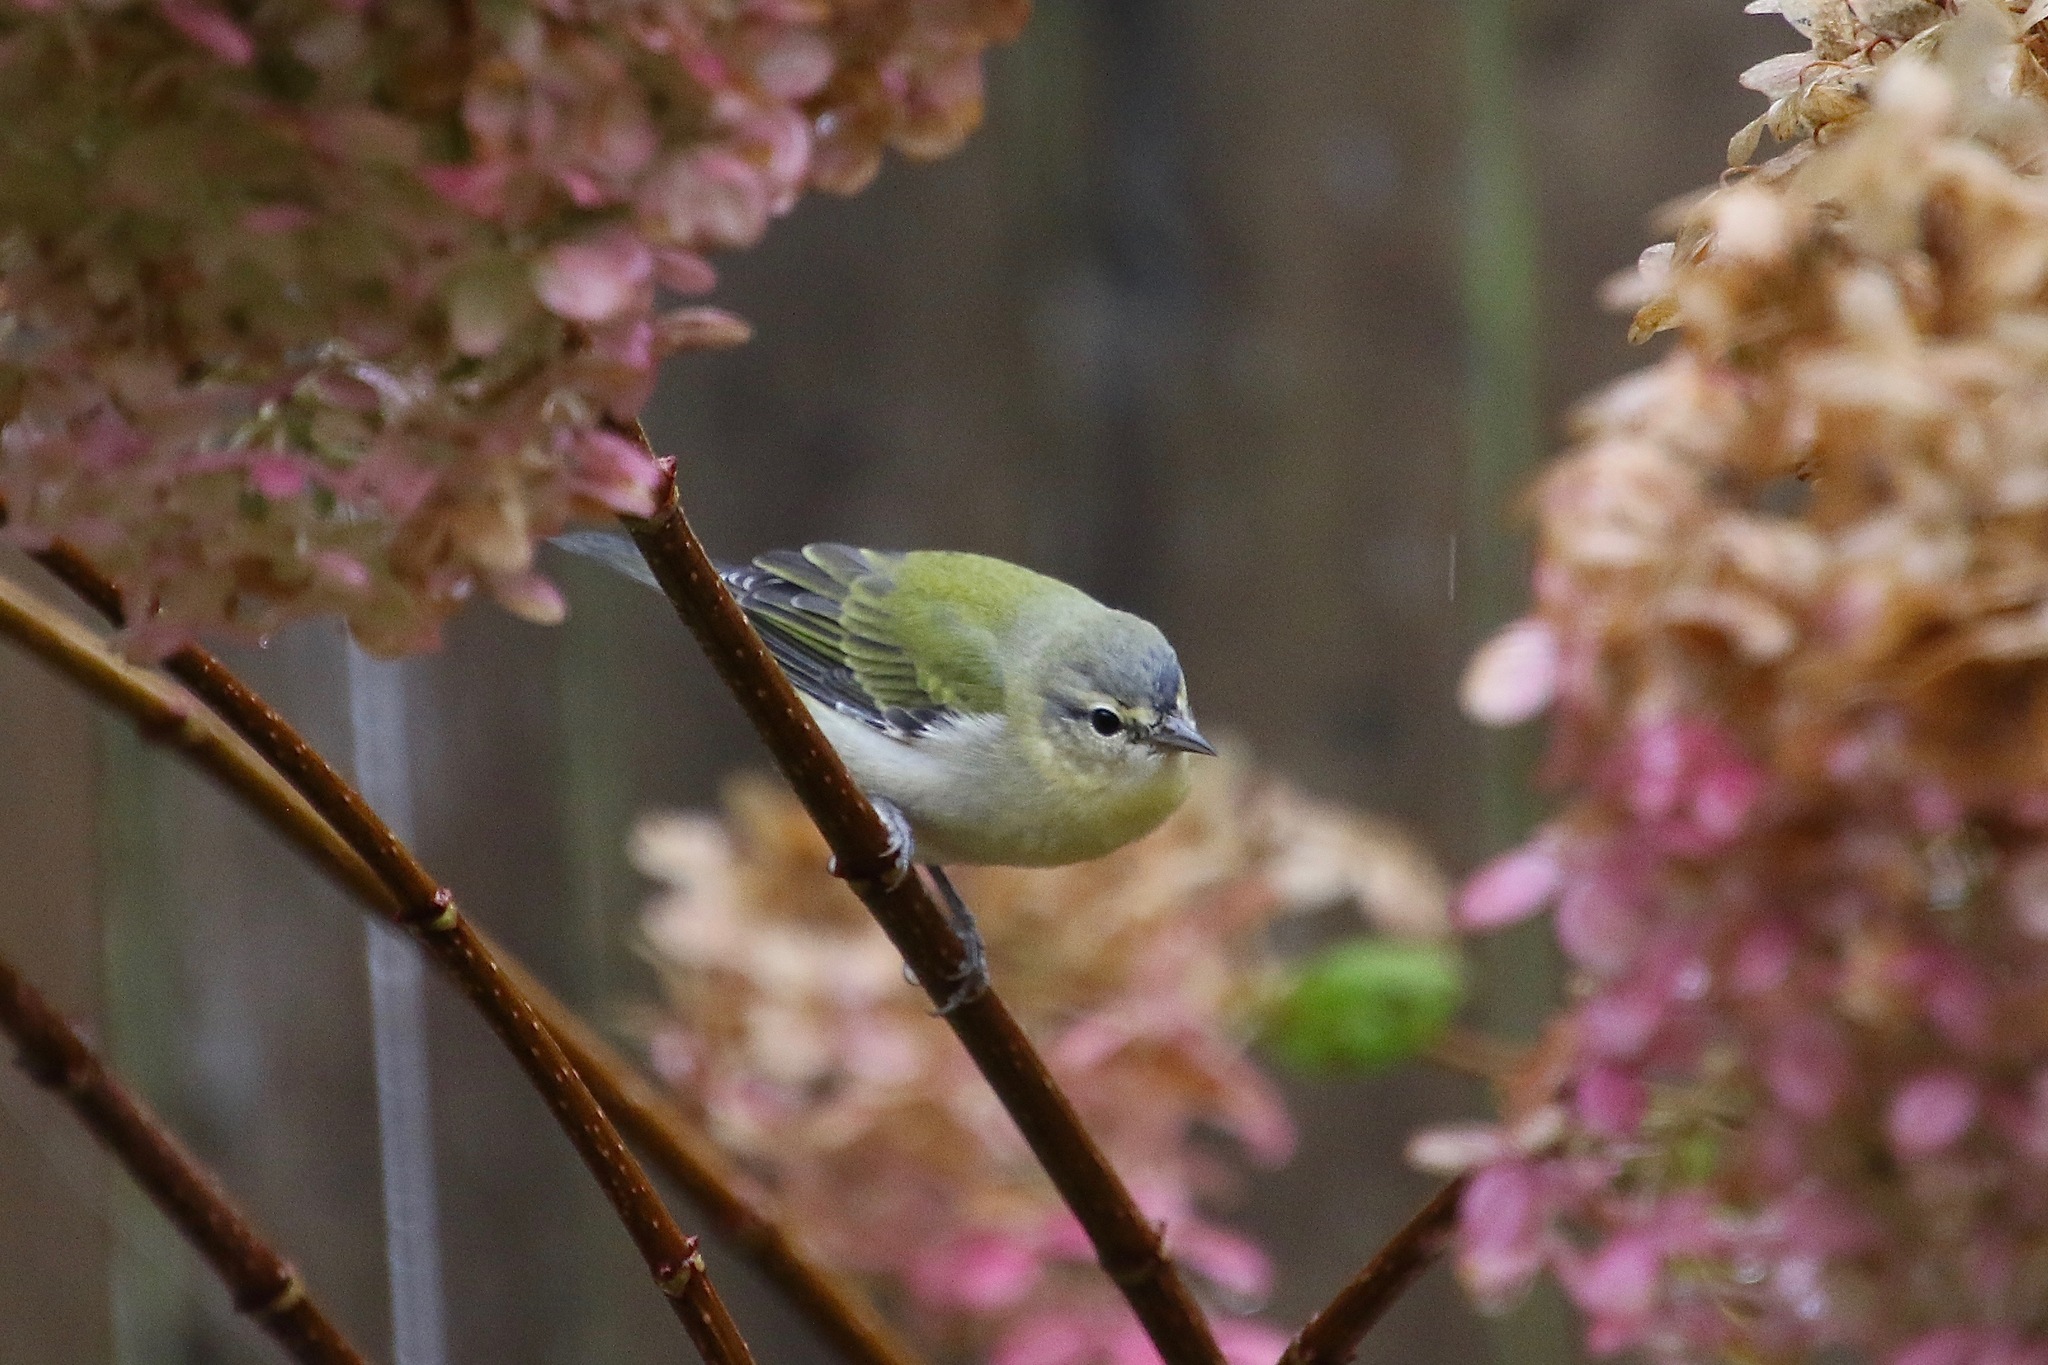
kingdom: Animalia
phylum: Chordata
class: Aves
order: Passeriformes
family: Parulidae
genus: Leiothlypis
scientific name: Leiothlypis peregrina
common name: Tennessee warbler
